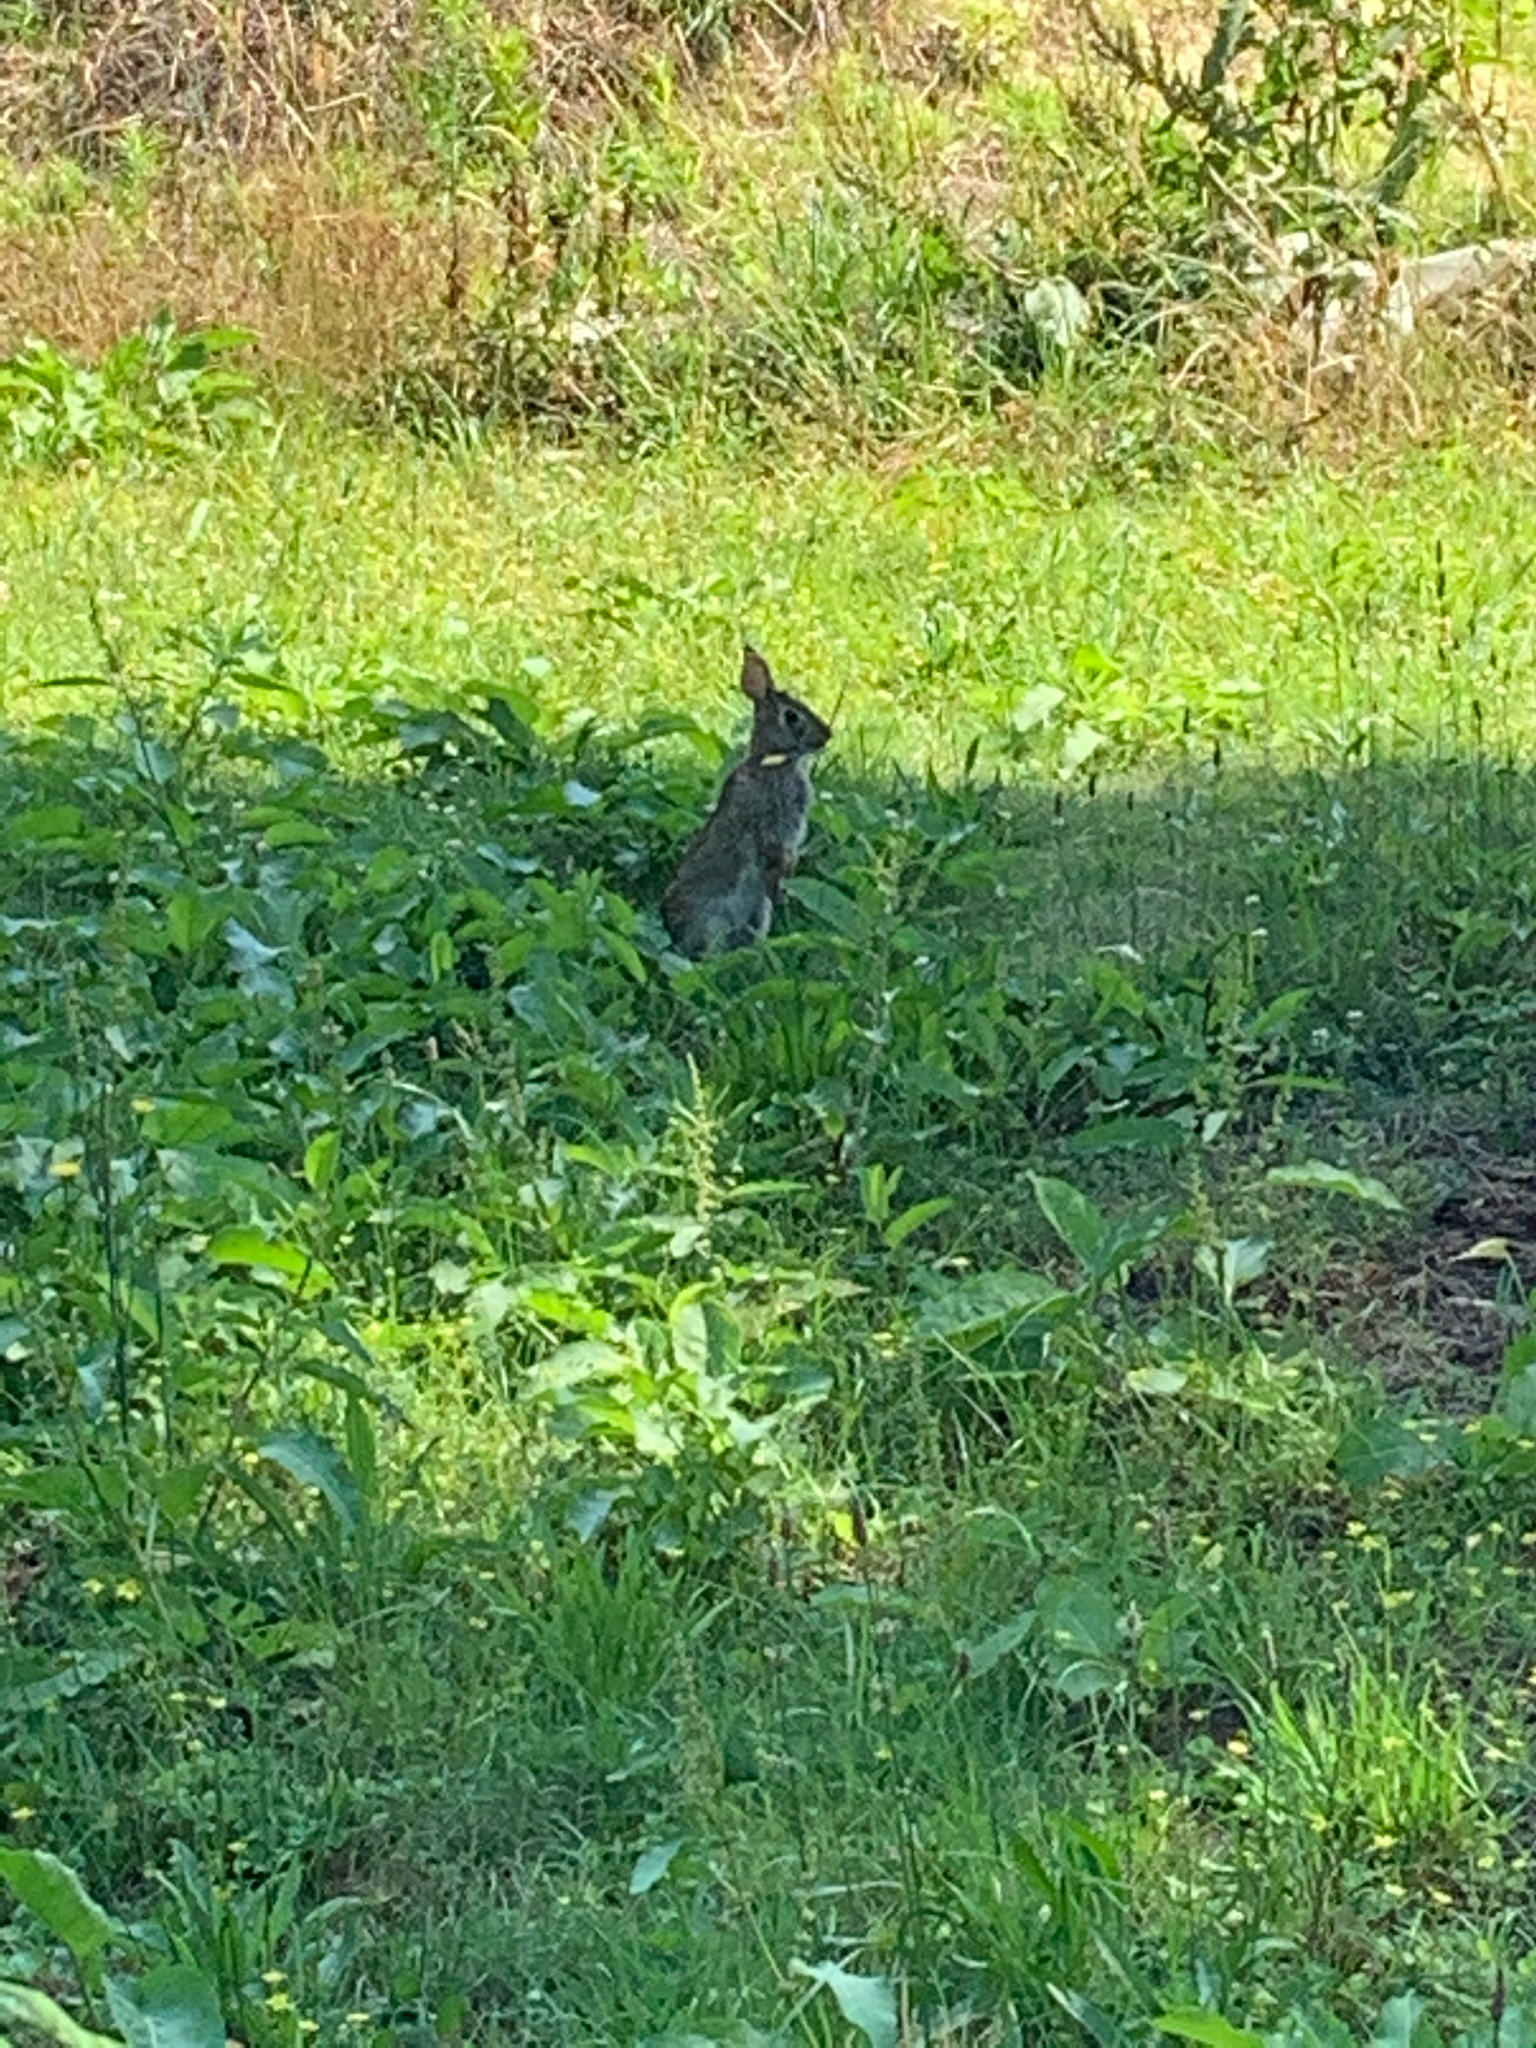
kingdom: Animalia
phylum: Chordata
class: Mammalia
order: Lagomorpha
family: Leporidae
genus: Sylvilagus
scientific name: Sylvilagus floridanus
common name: Eastern cottontail
